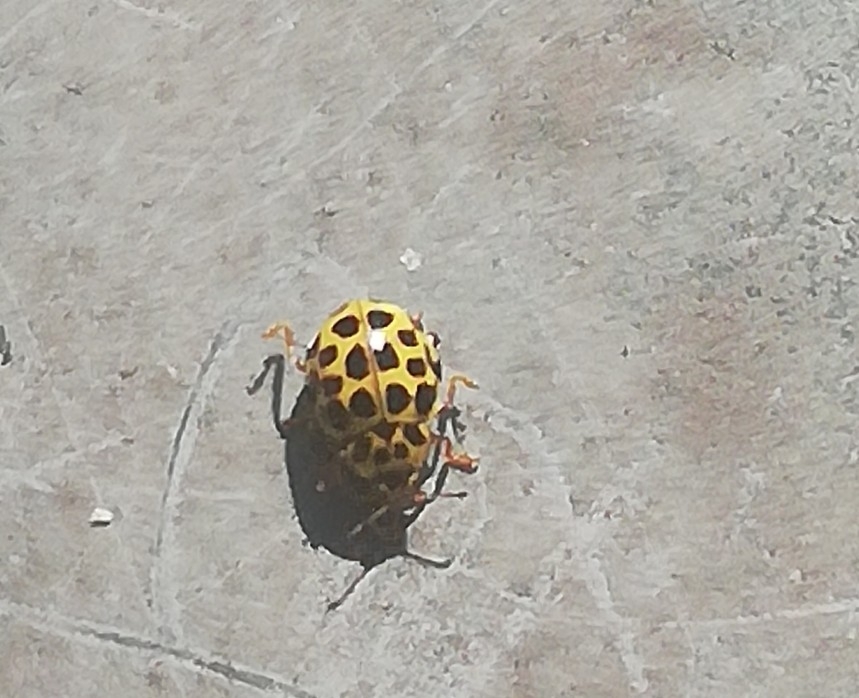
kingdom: Animalia
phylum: Arthropoda
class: Insecta
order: Coleoptera
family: Coccinellidae
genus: Psyllobora
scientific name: Psyllobora vigintiduopunctata
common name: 22-spot ladybird
